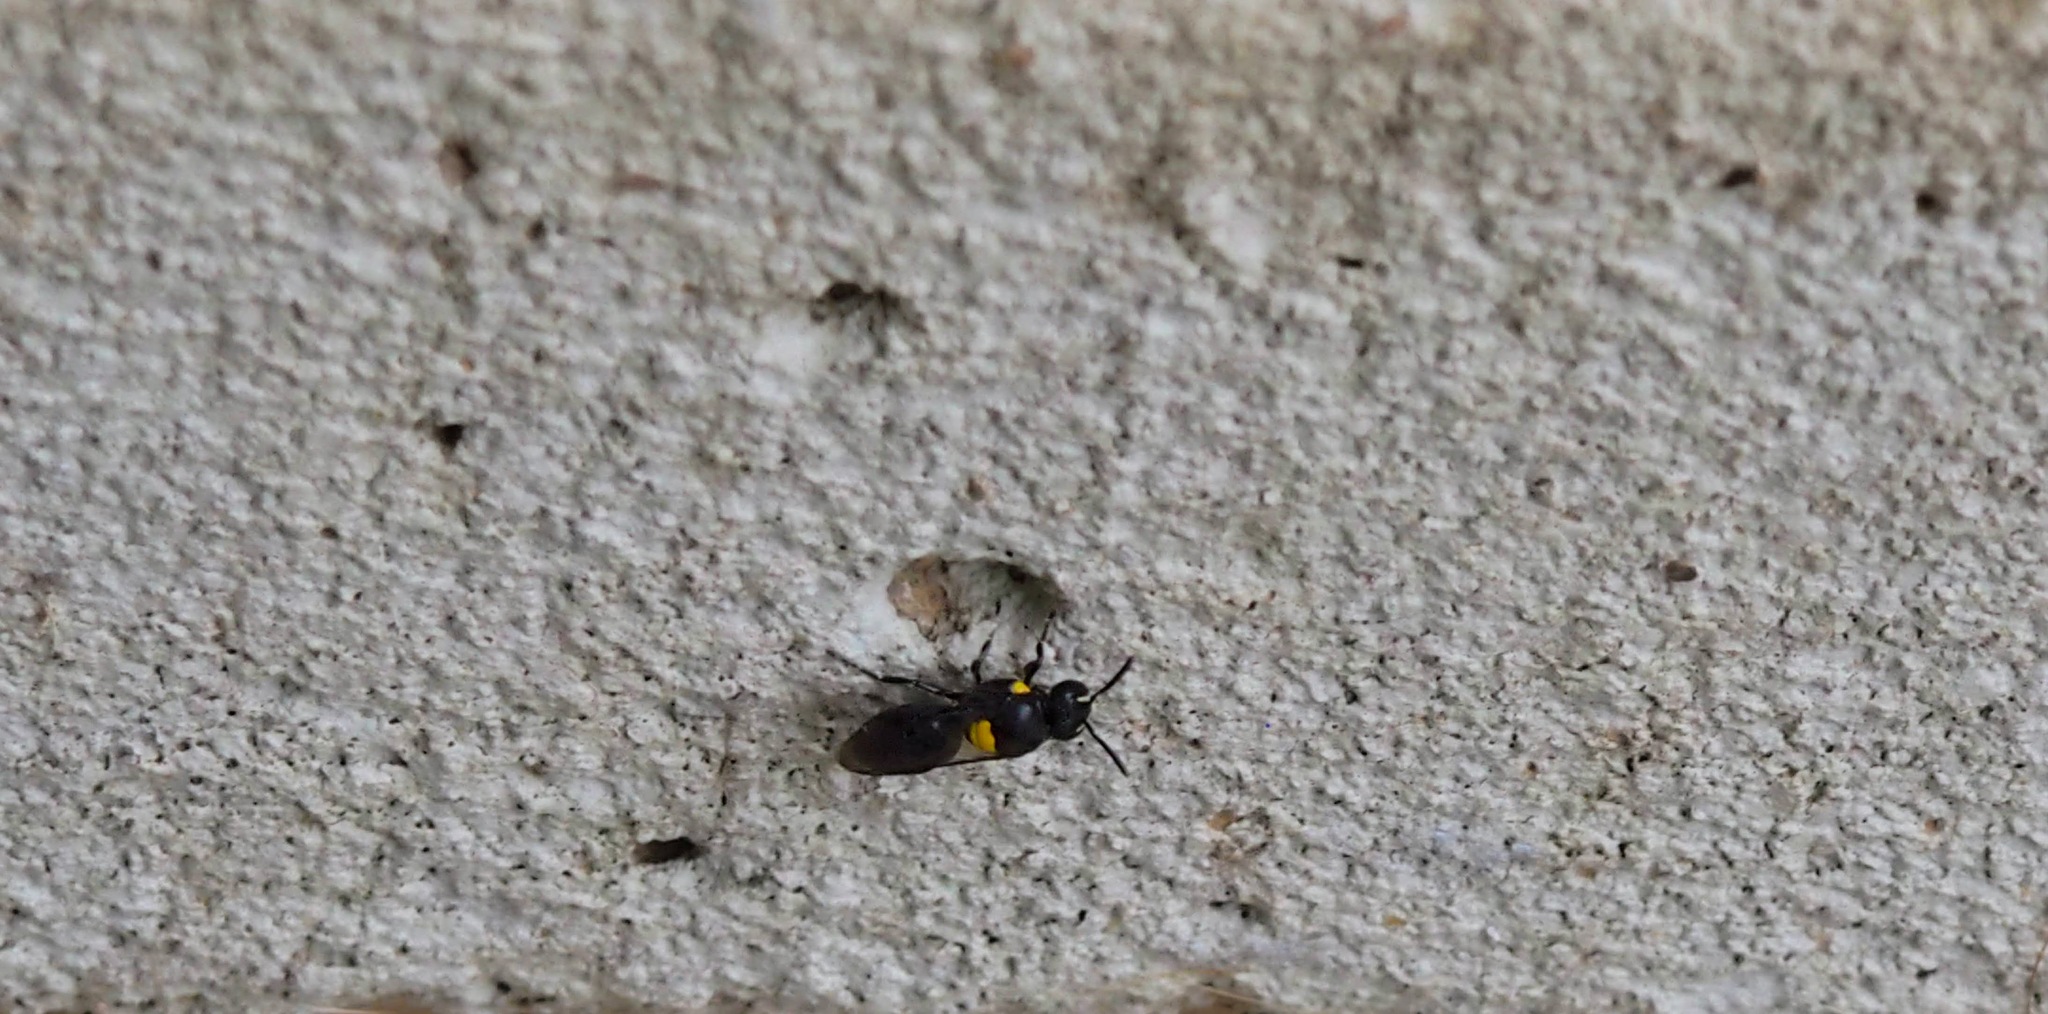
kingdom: Animalia
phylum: Arthropoda
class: Insecta
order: Hymenoptera
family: Colletidae
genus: Hylaeus
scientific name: Hylaeus nubilosus
